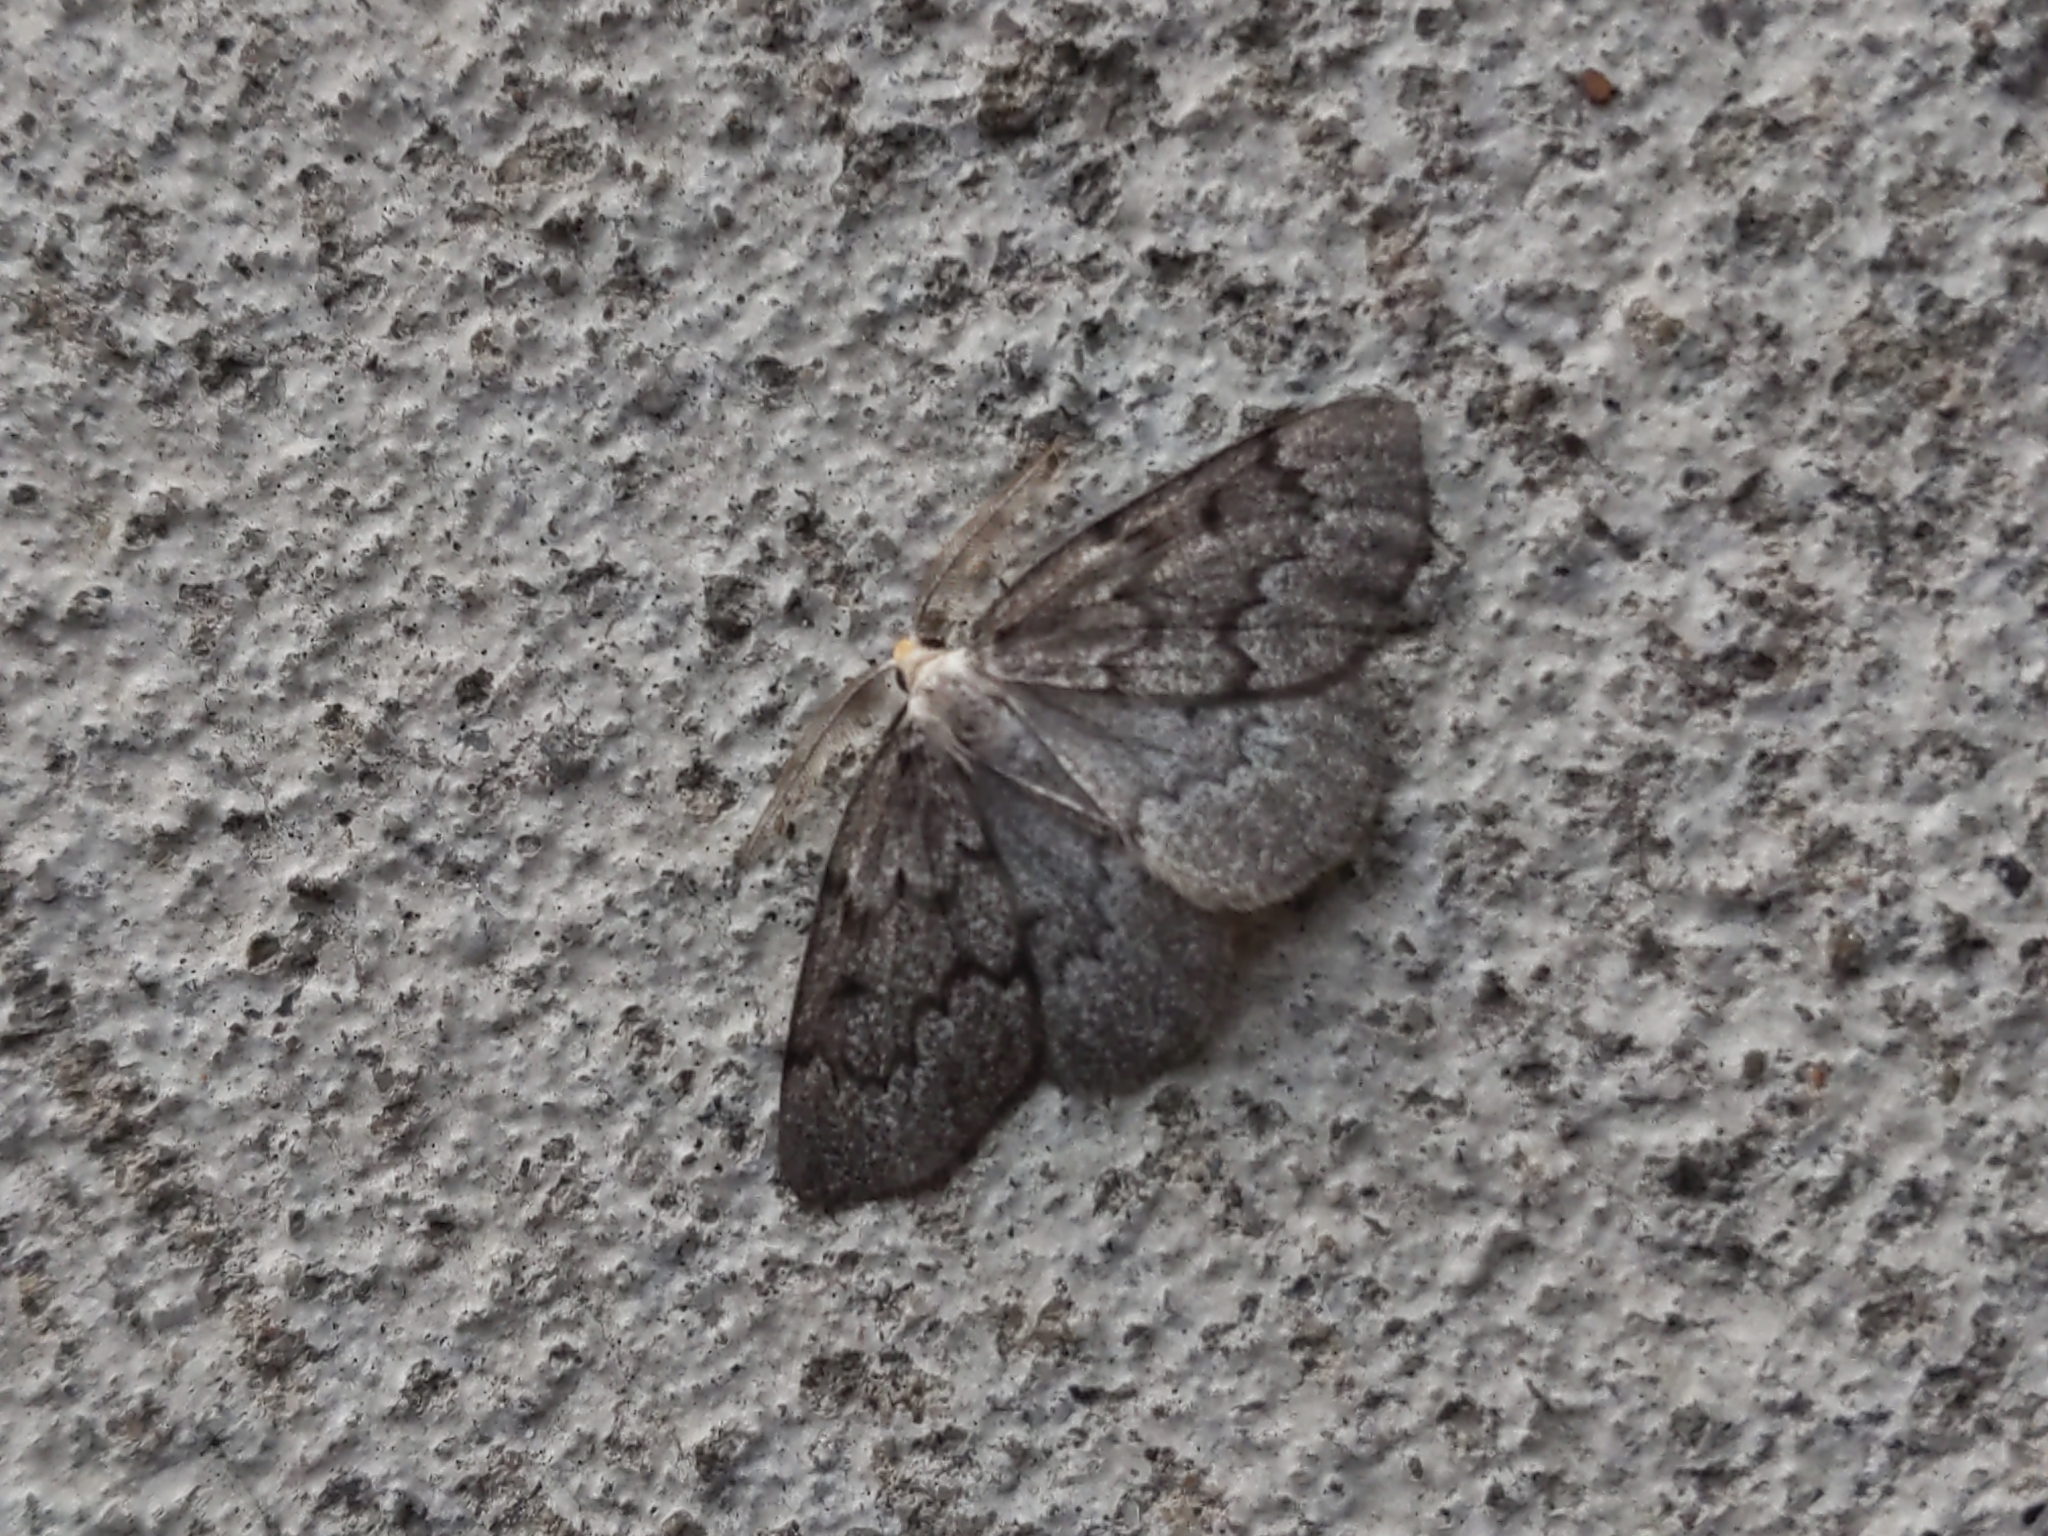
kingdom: Animalia
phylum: Arthropoda
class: Insecta
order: Lepidoptera
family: Geometridae
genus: Nepytia
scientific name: Nepytia canosaria
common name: False hemlock looper
